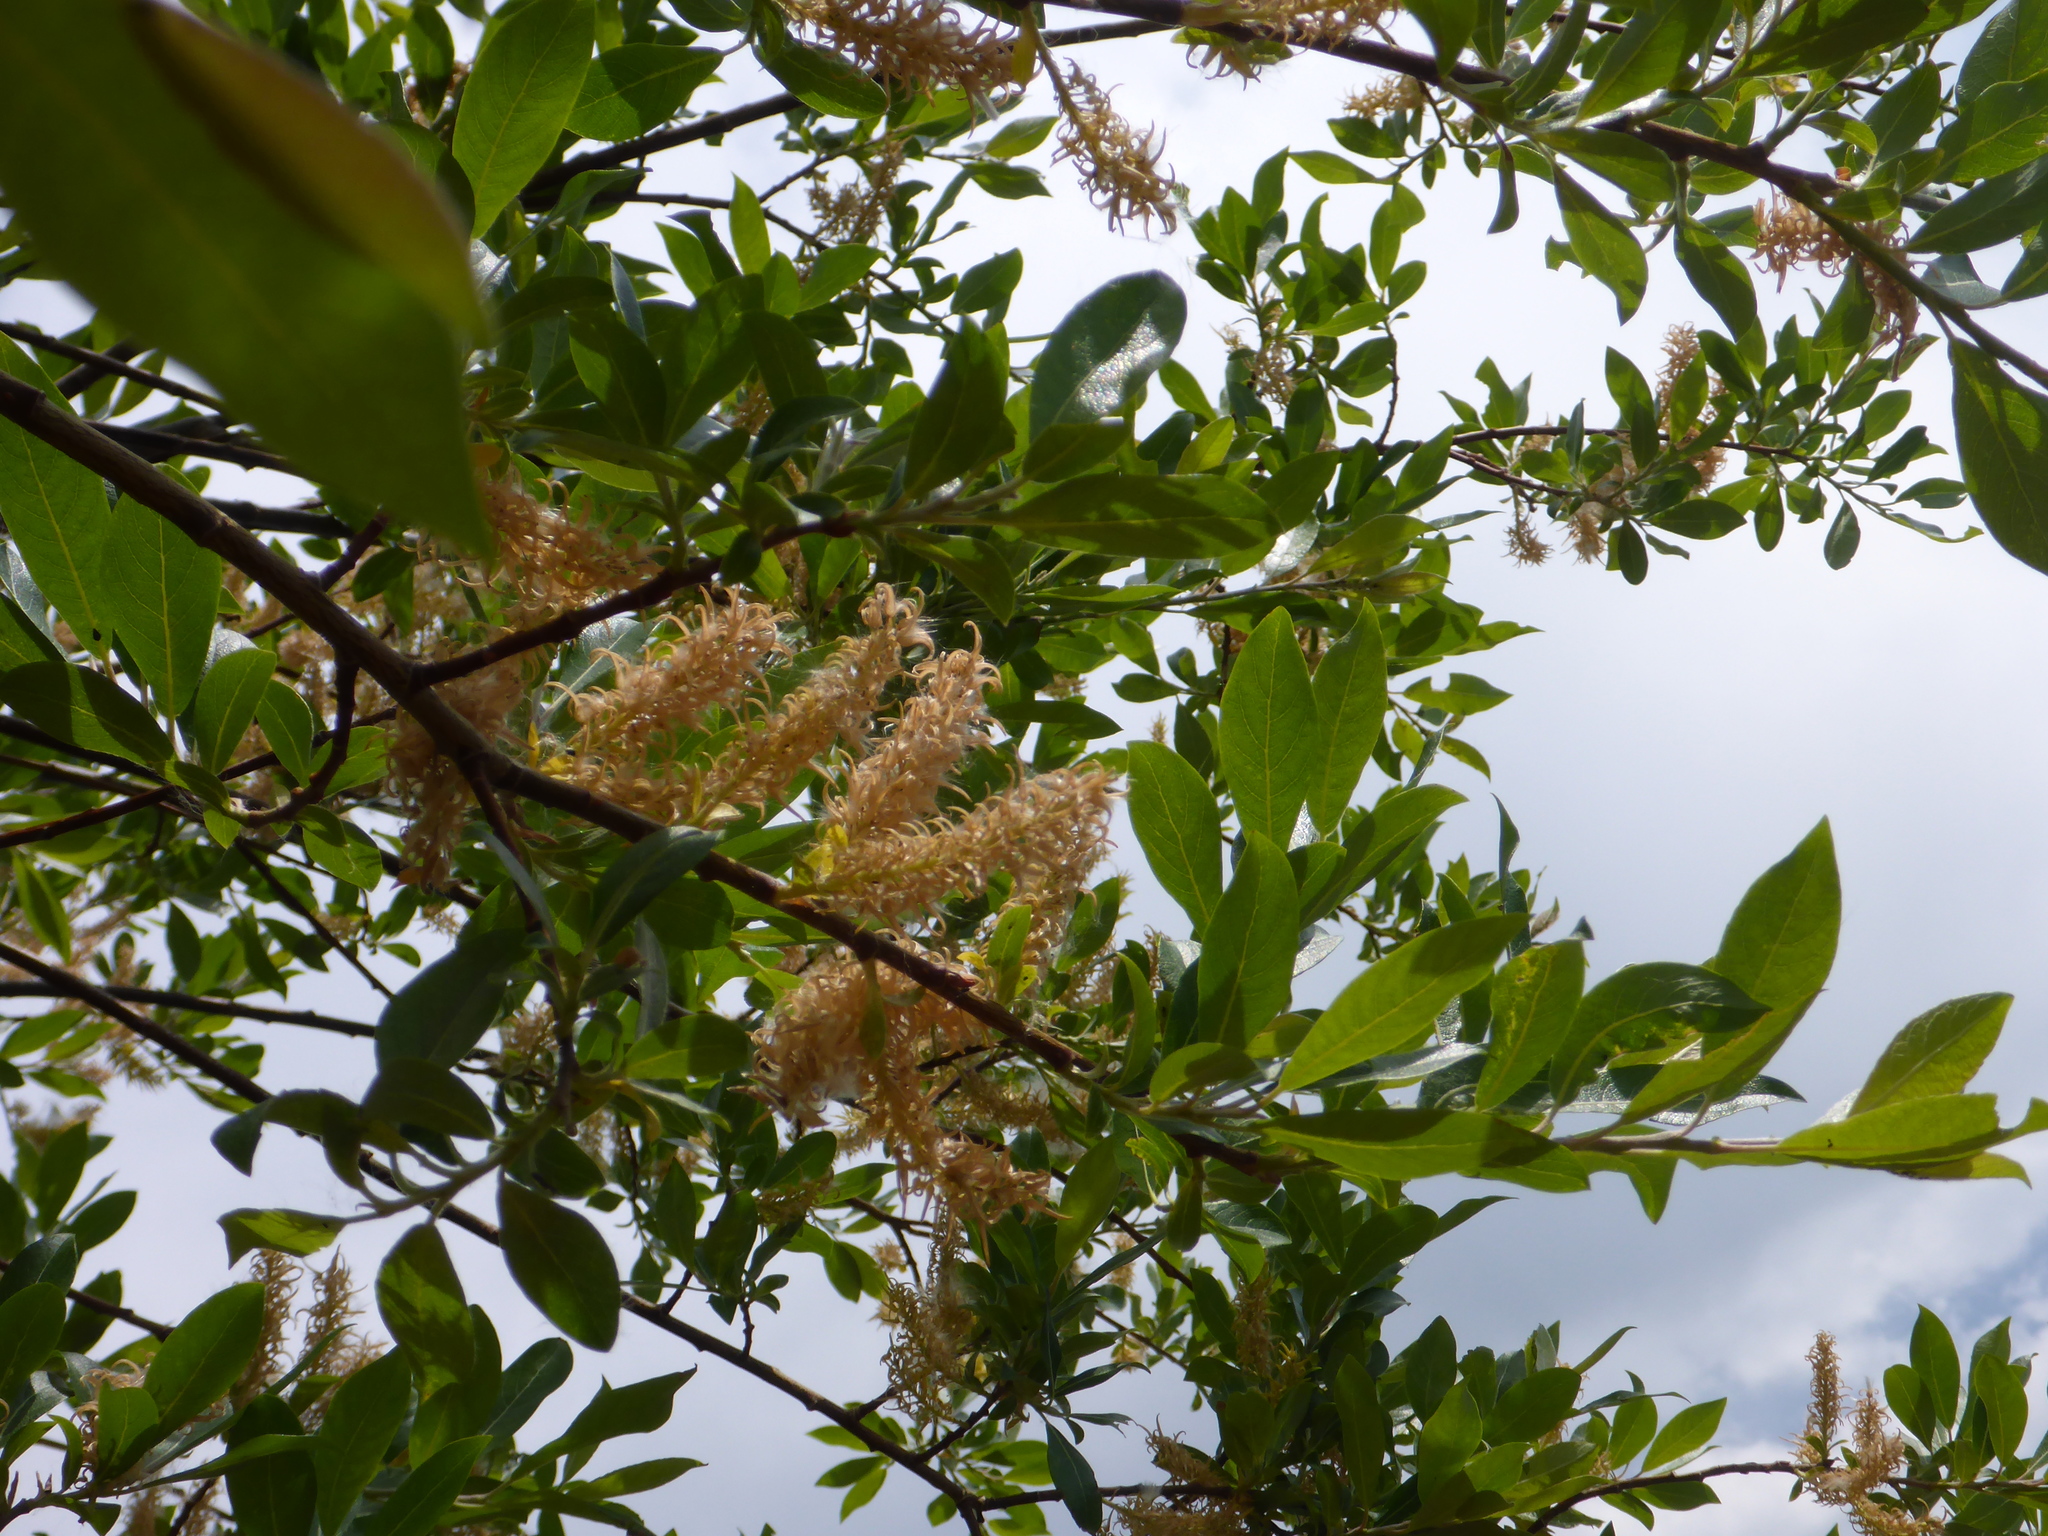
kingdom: Plantae
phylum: Tracheophyta
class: Magnoliopsida
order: Malpighiales
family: Salicaceae
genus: Salix
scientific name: Salix bebbiana
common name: Bebb's willow
